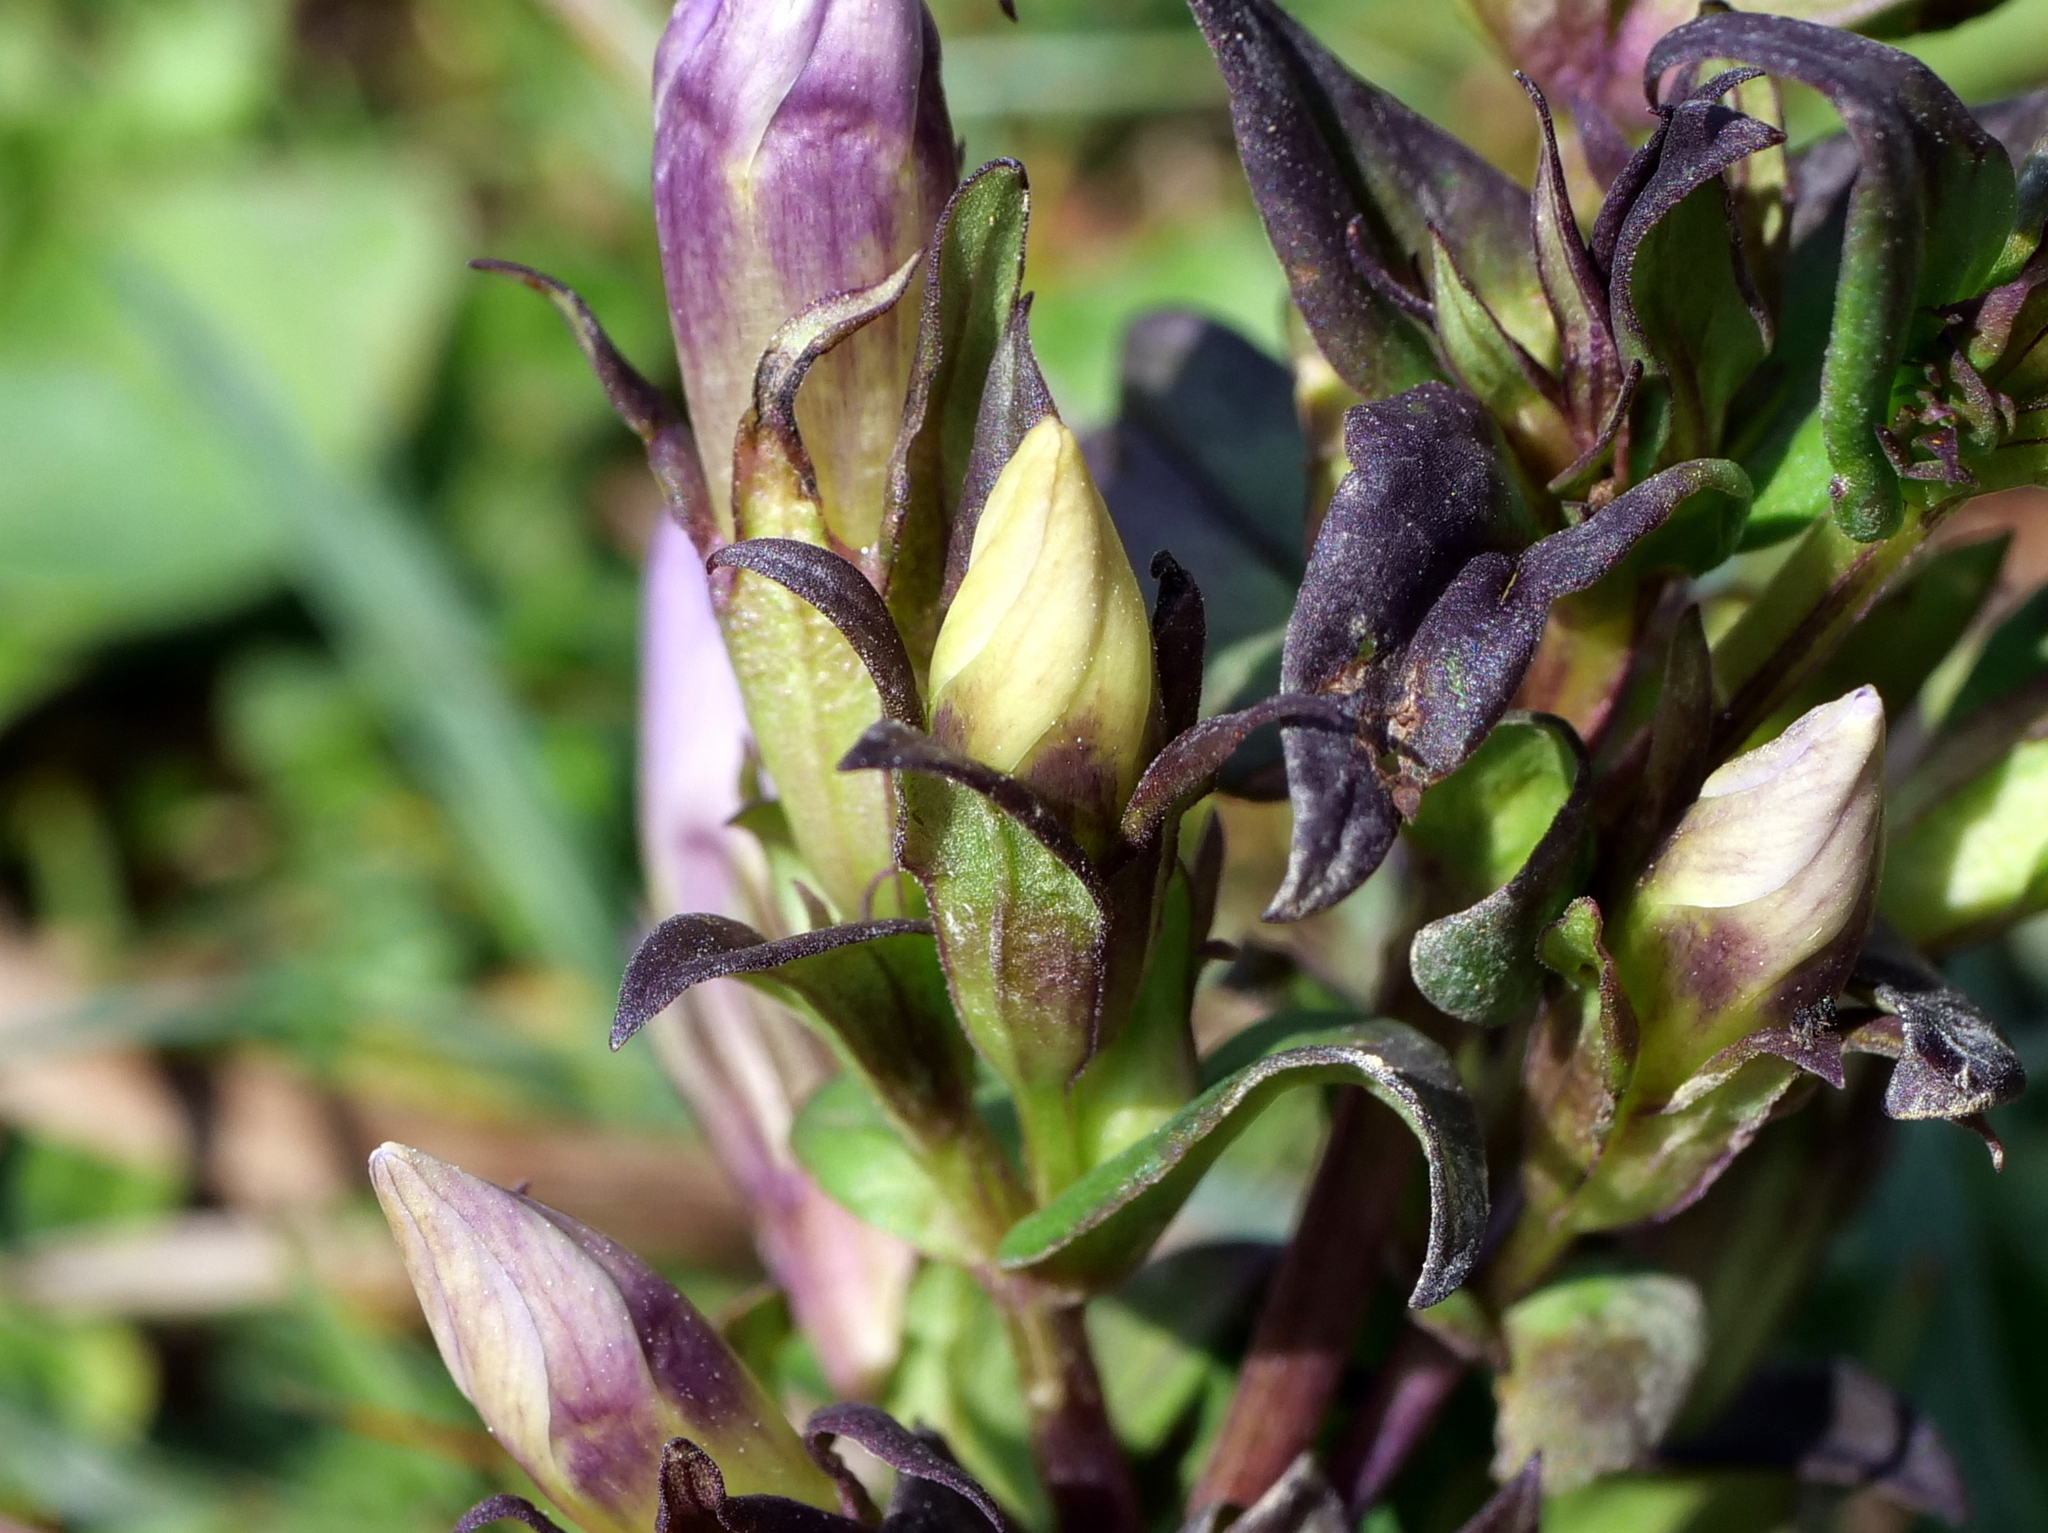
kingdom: Plantae
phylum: Tracheophyta
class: Magnoliopsida
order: Gentianales
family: Gentianaceae
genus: Gentianella
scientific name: Gentianella
